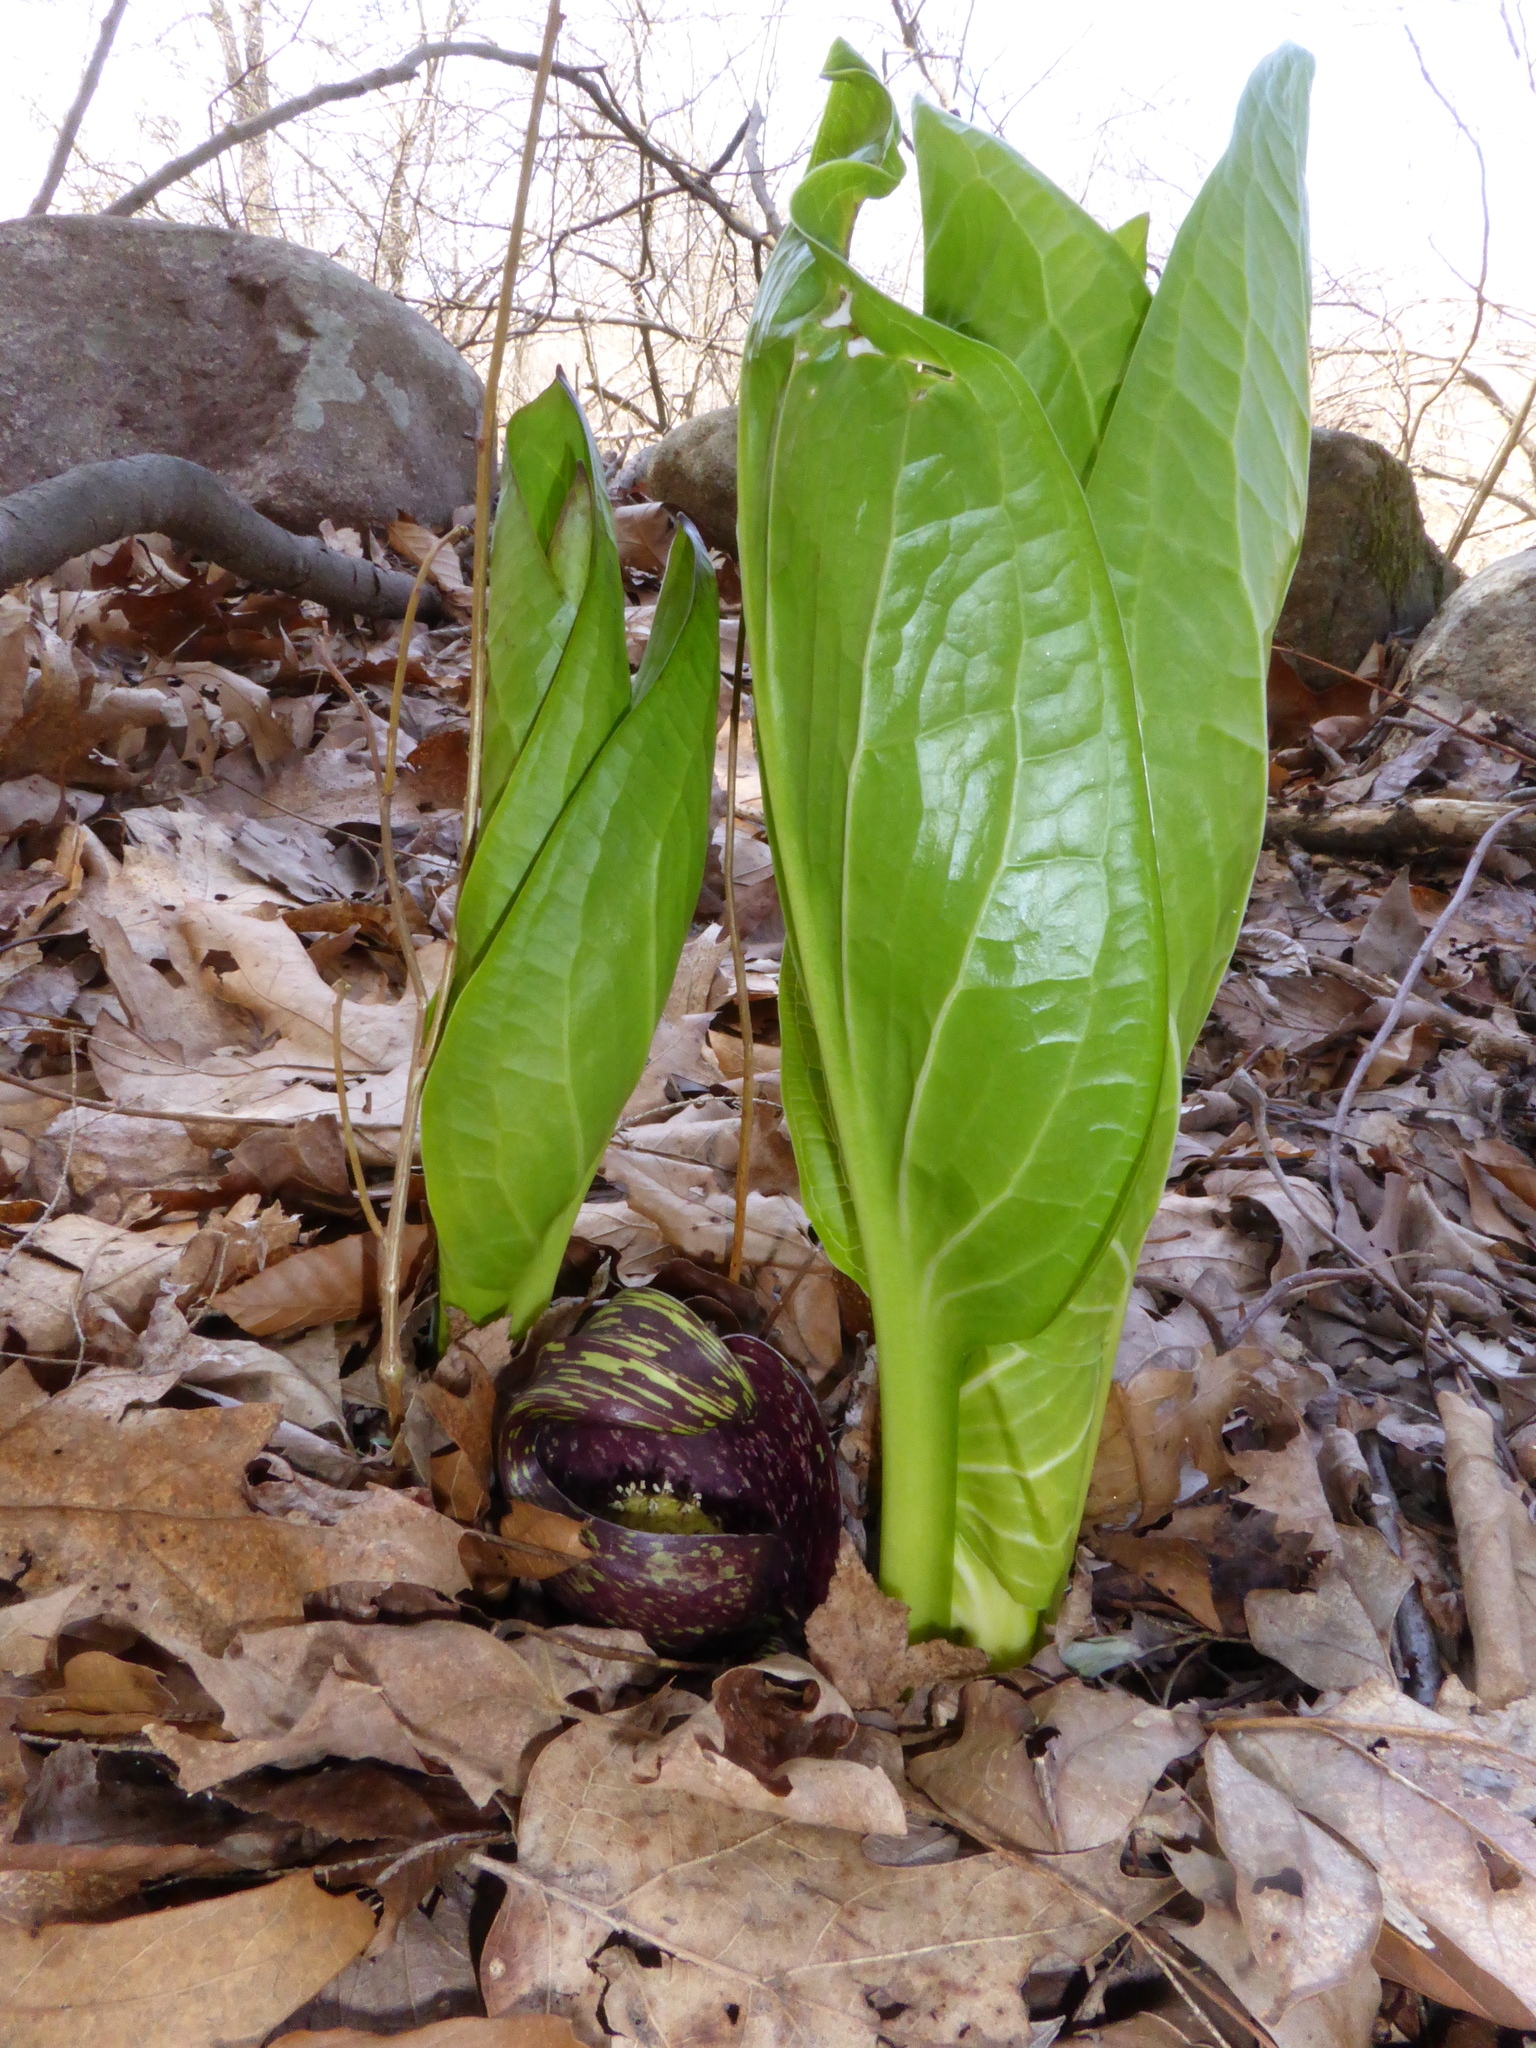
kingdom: Plantae
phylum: Tracheophyta
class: Liliopsida
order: Alismatales
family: Araceae
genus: Symplocarpus
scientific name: Symplocarpus foetidus
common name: Eastern skunk cabbage
